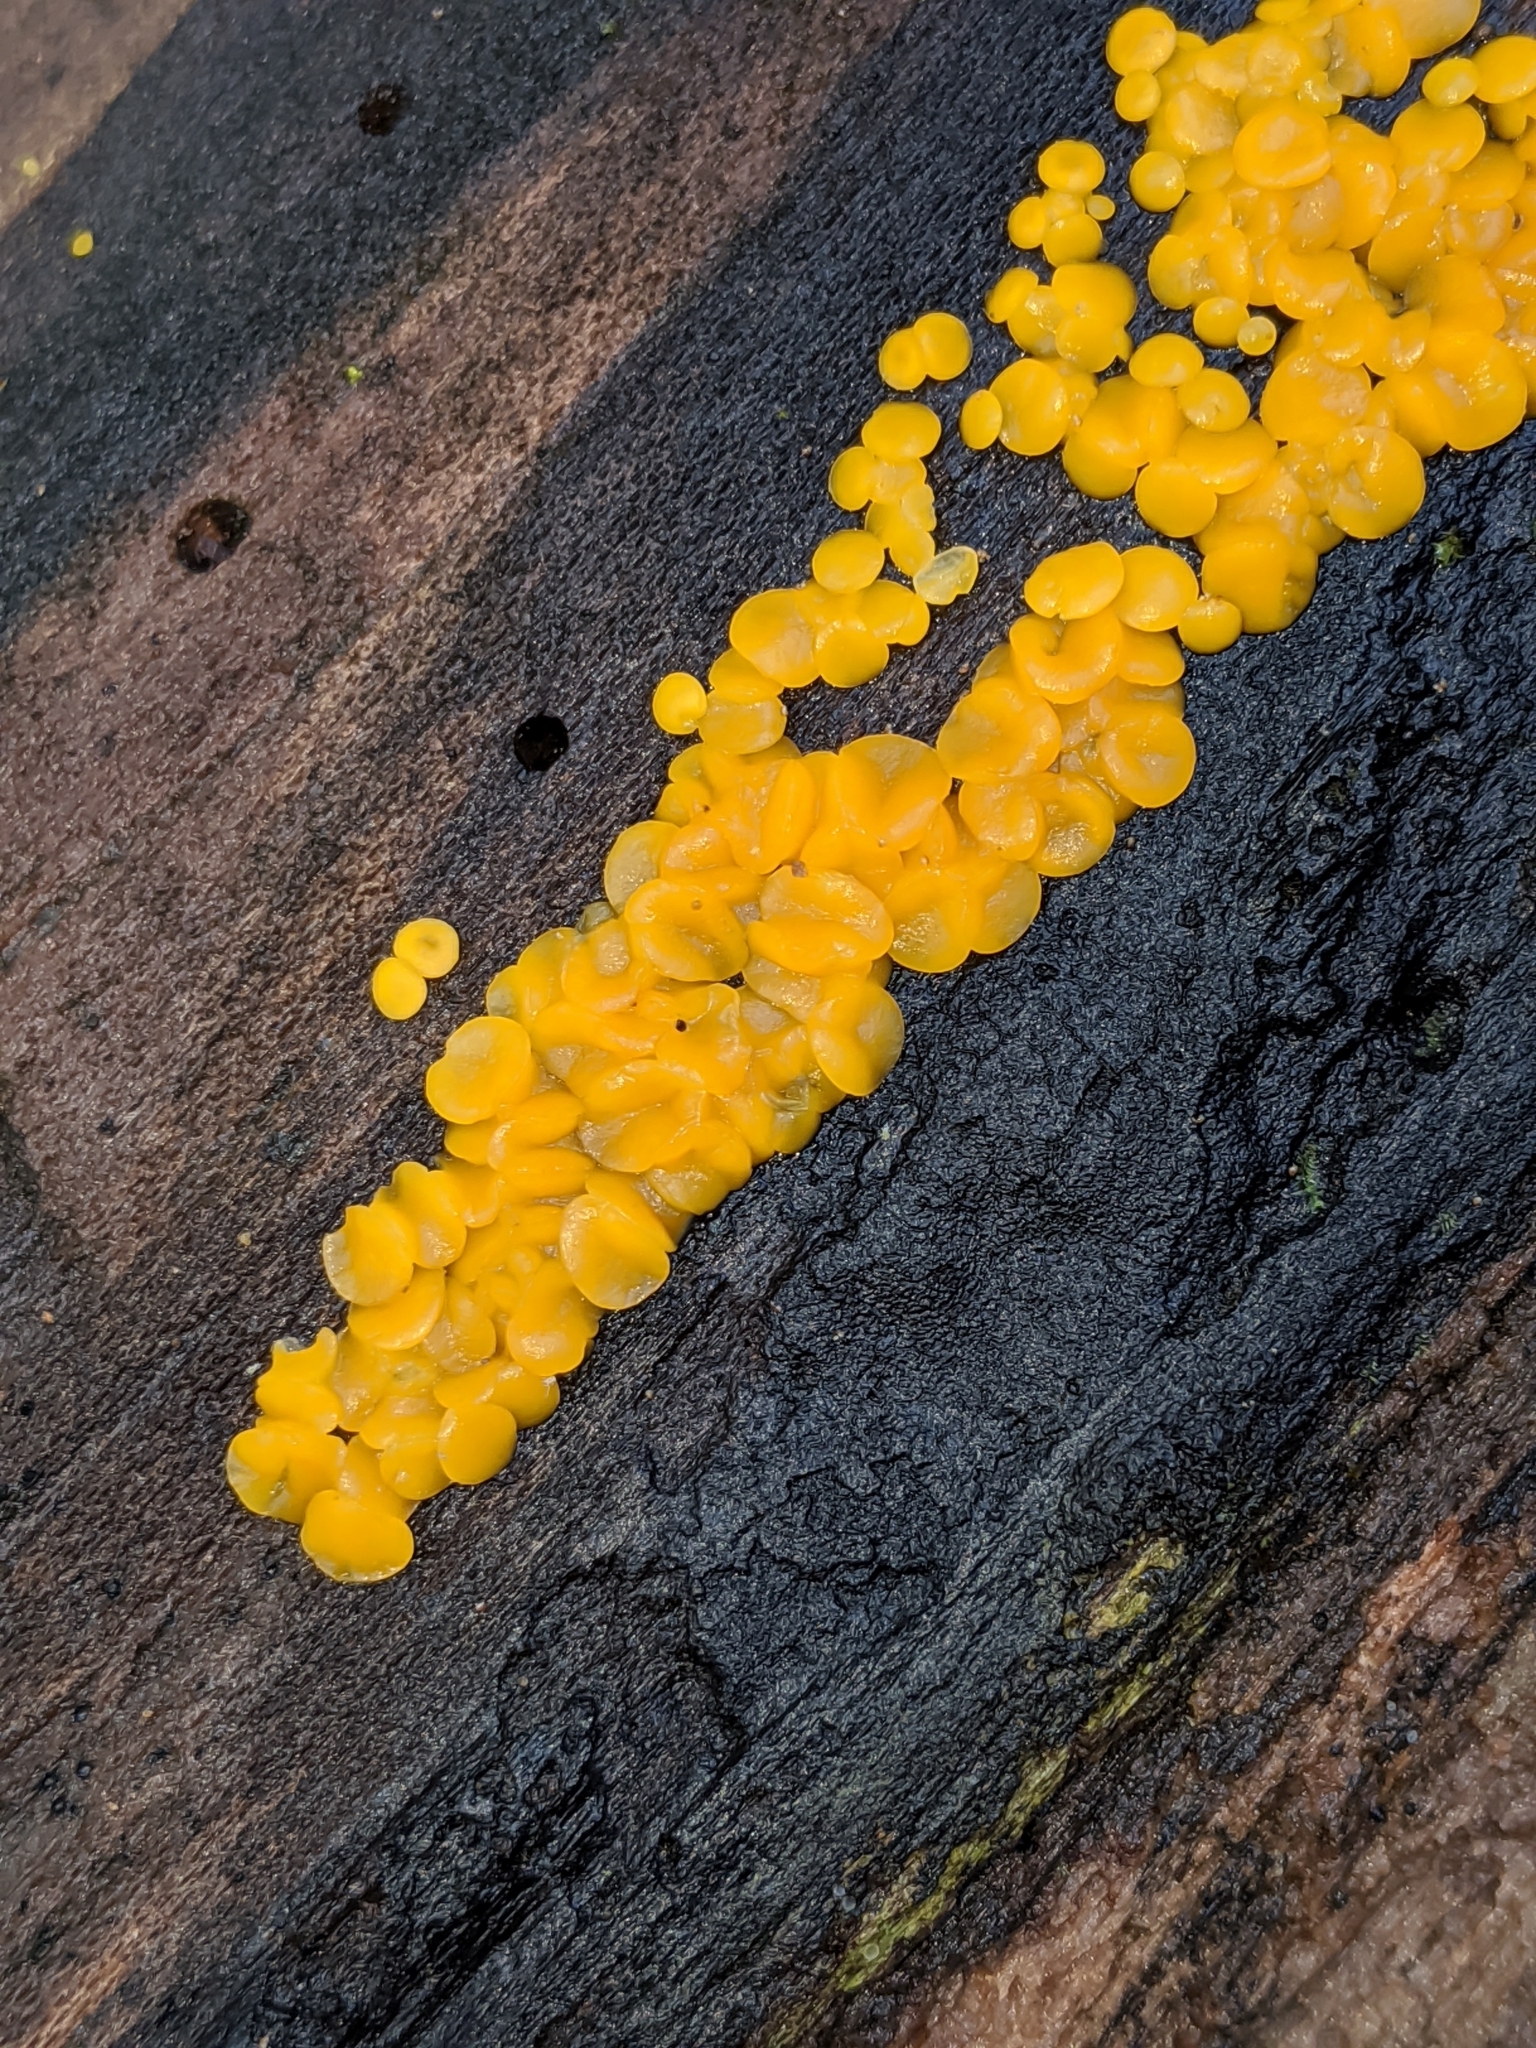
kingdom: Fungi
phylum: Ascomycota
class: Leotiomycetes
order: Helotiales
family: Pezizellaceae
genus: Calycina
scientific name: Calycina citrina
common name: Yellow fairy cups
